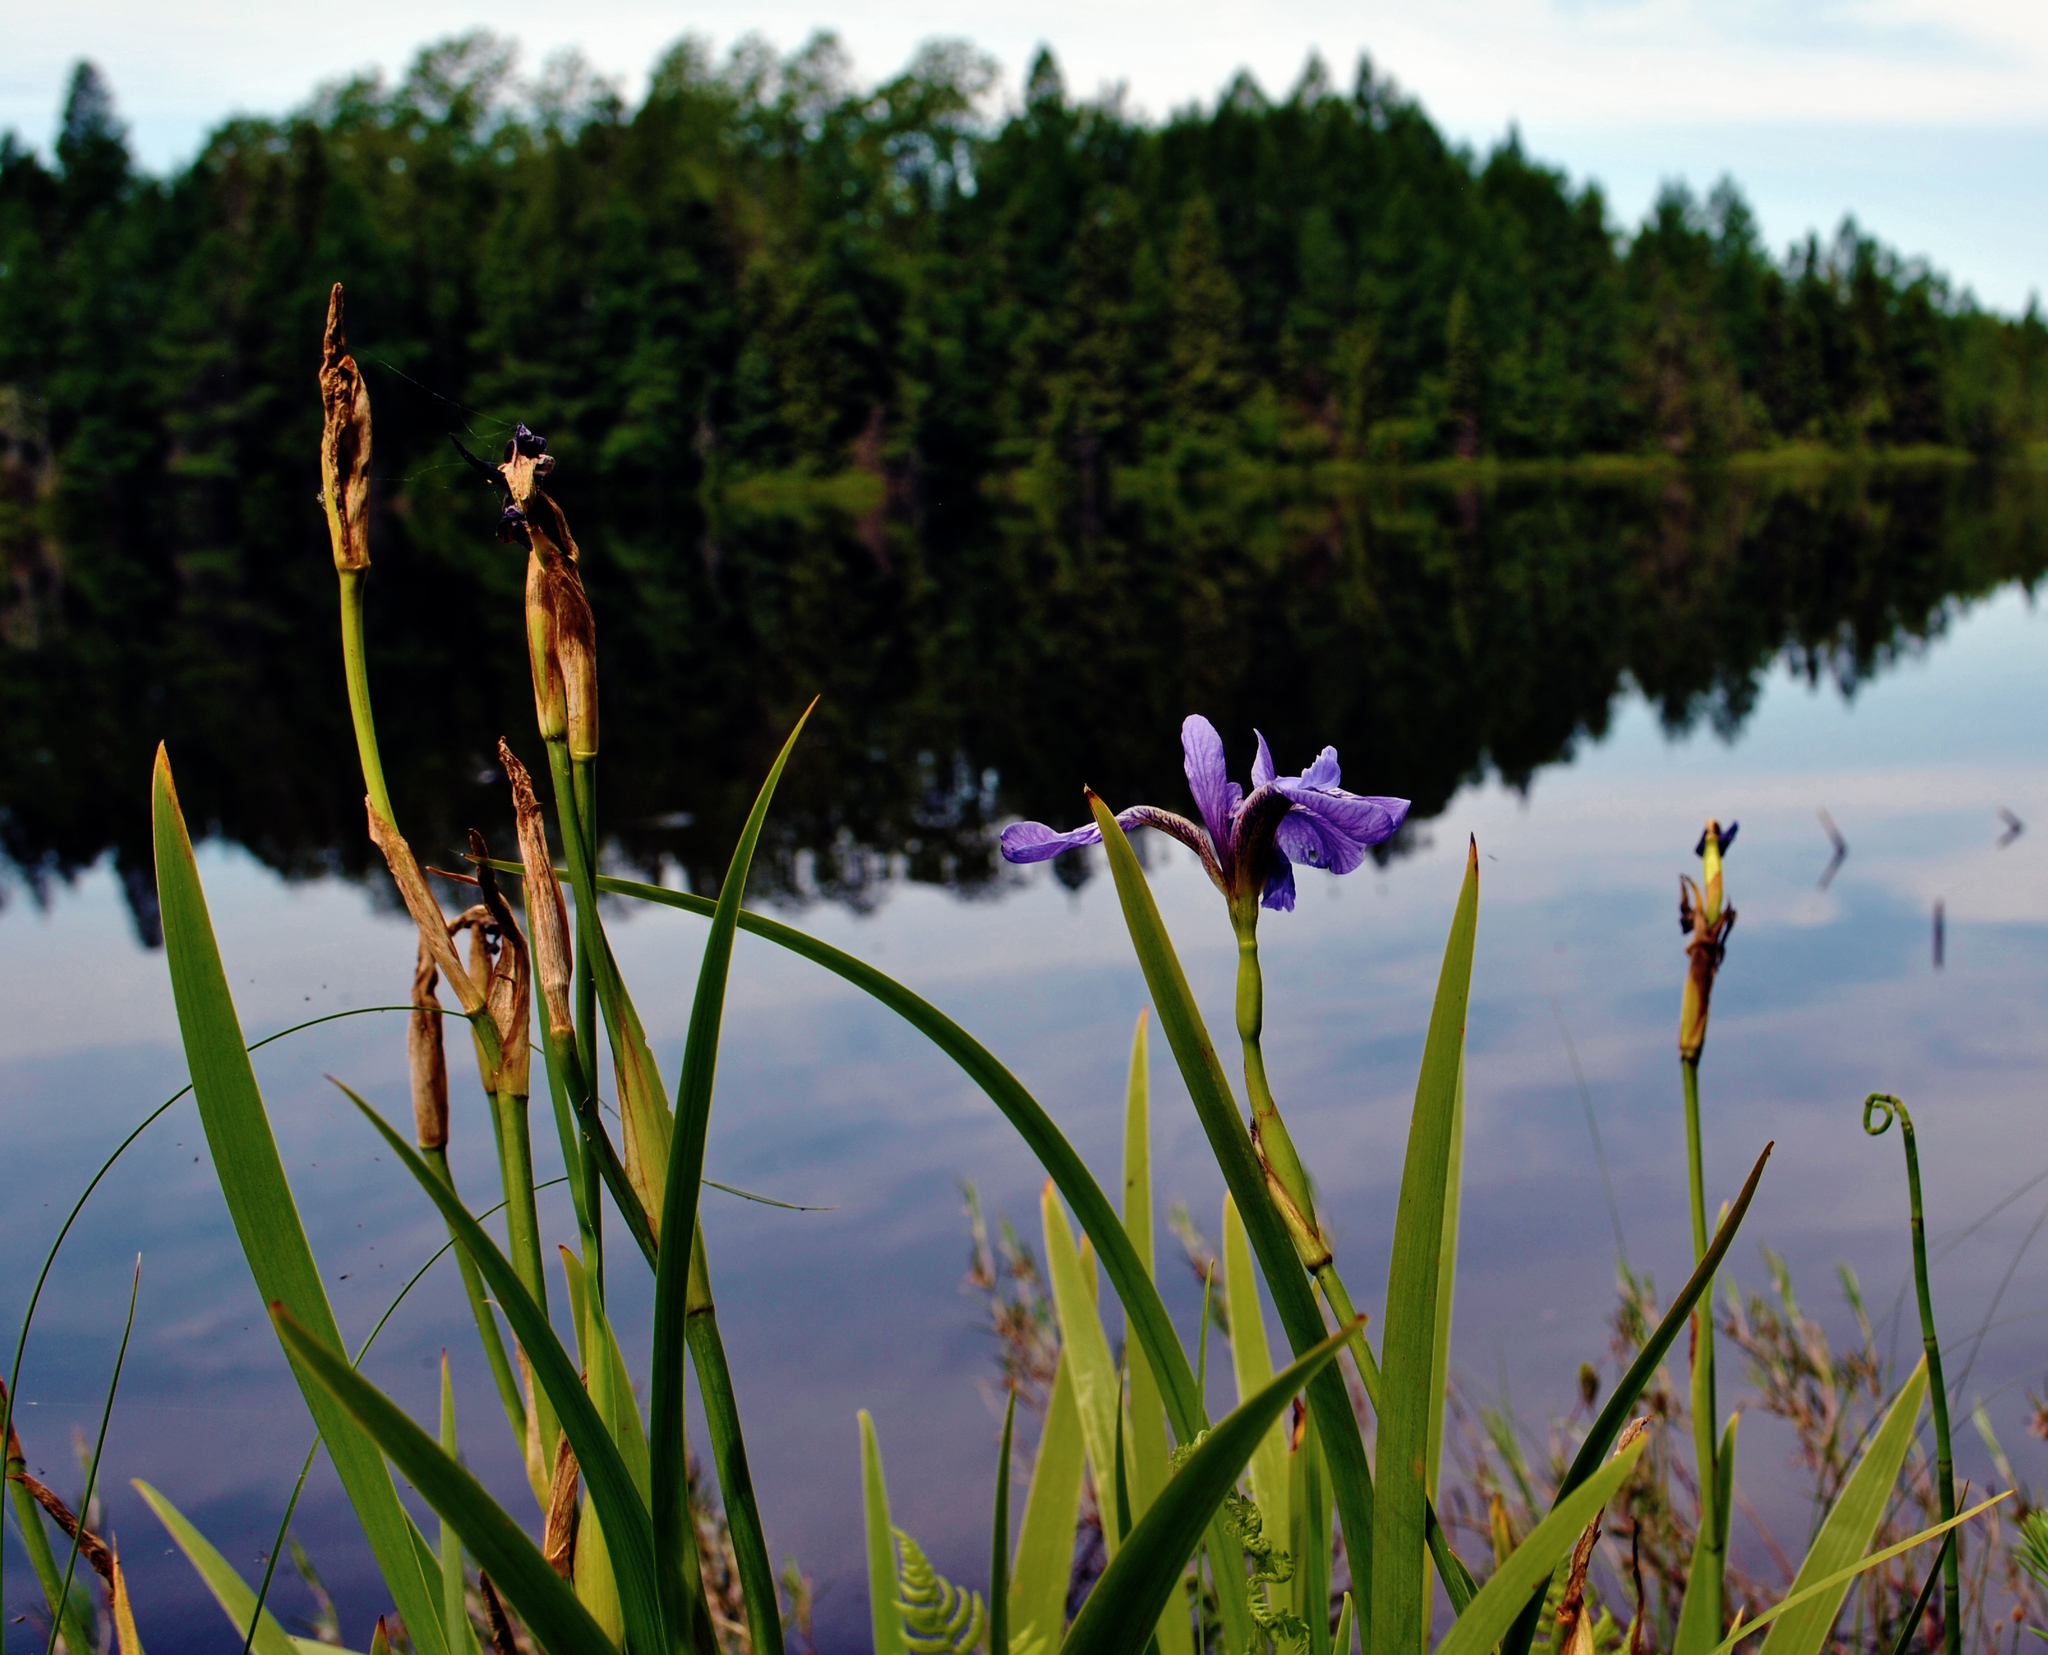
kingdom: Plantae
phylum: Tracheophyta
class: Liliopsida
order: Asparagales
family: Iridaceae
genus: Iris
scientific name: Iris versicolor
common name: Purple iris
